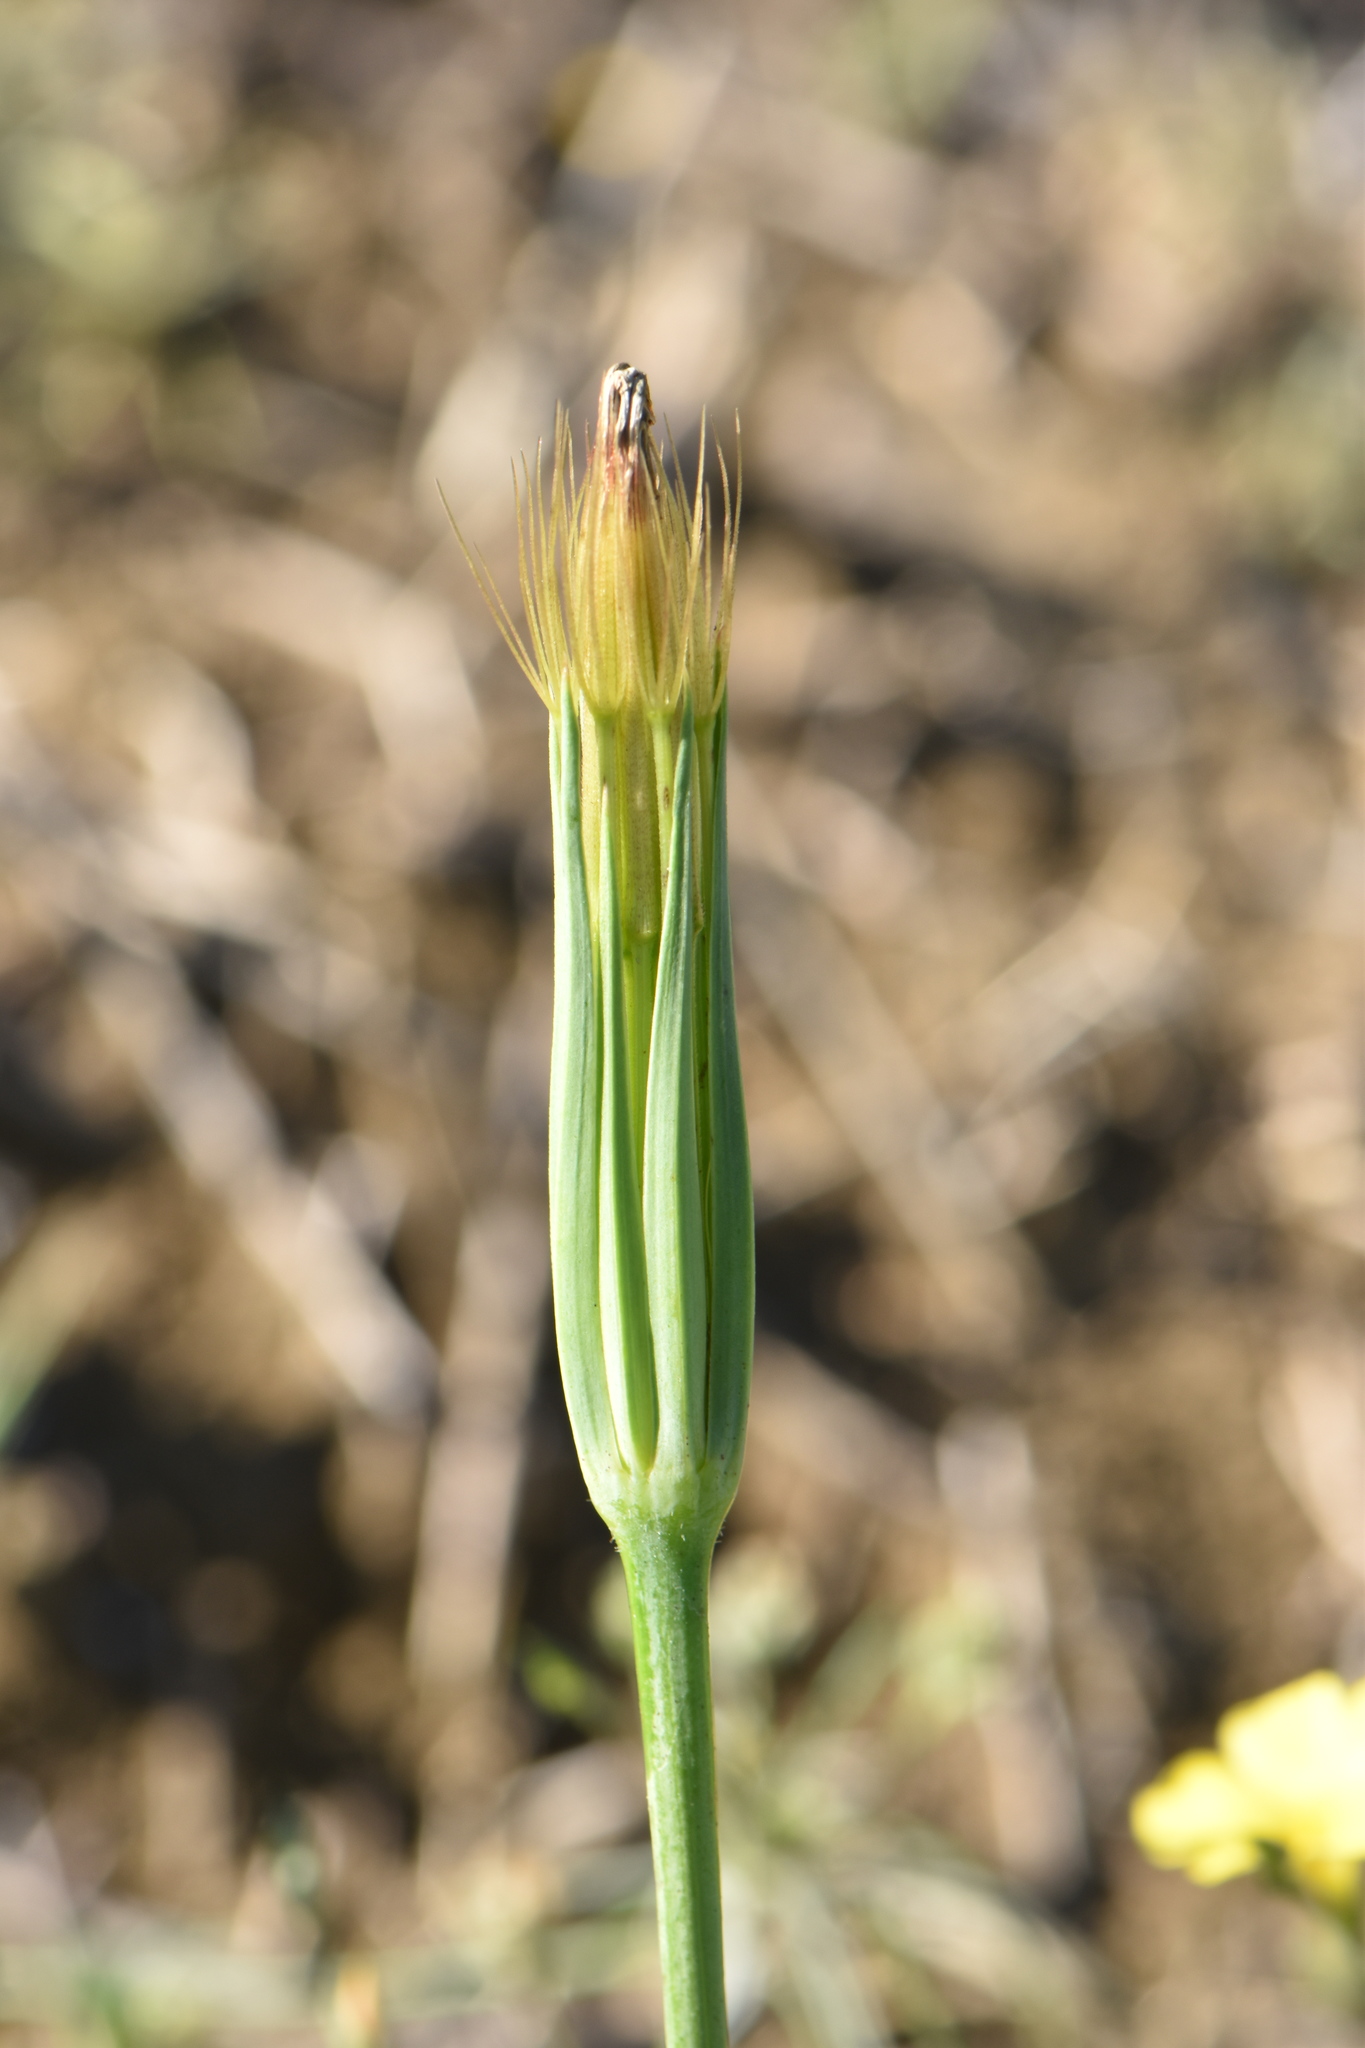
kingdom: Plantae
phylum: Tracheophyta
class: Magnoliopsida
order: Asterales
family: Asteraceae
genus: Geropogon
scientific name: Geropogon hybridus
